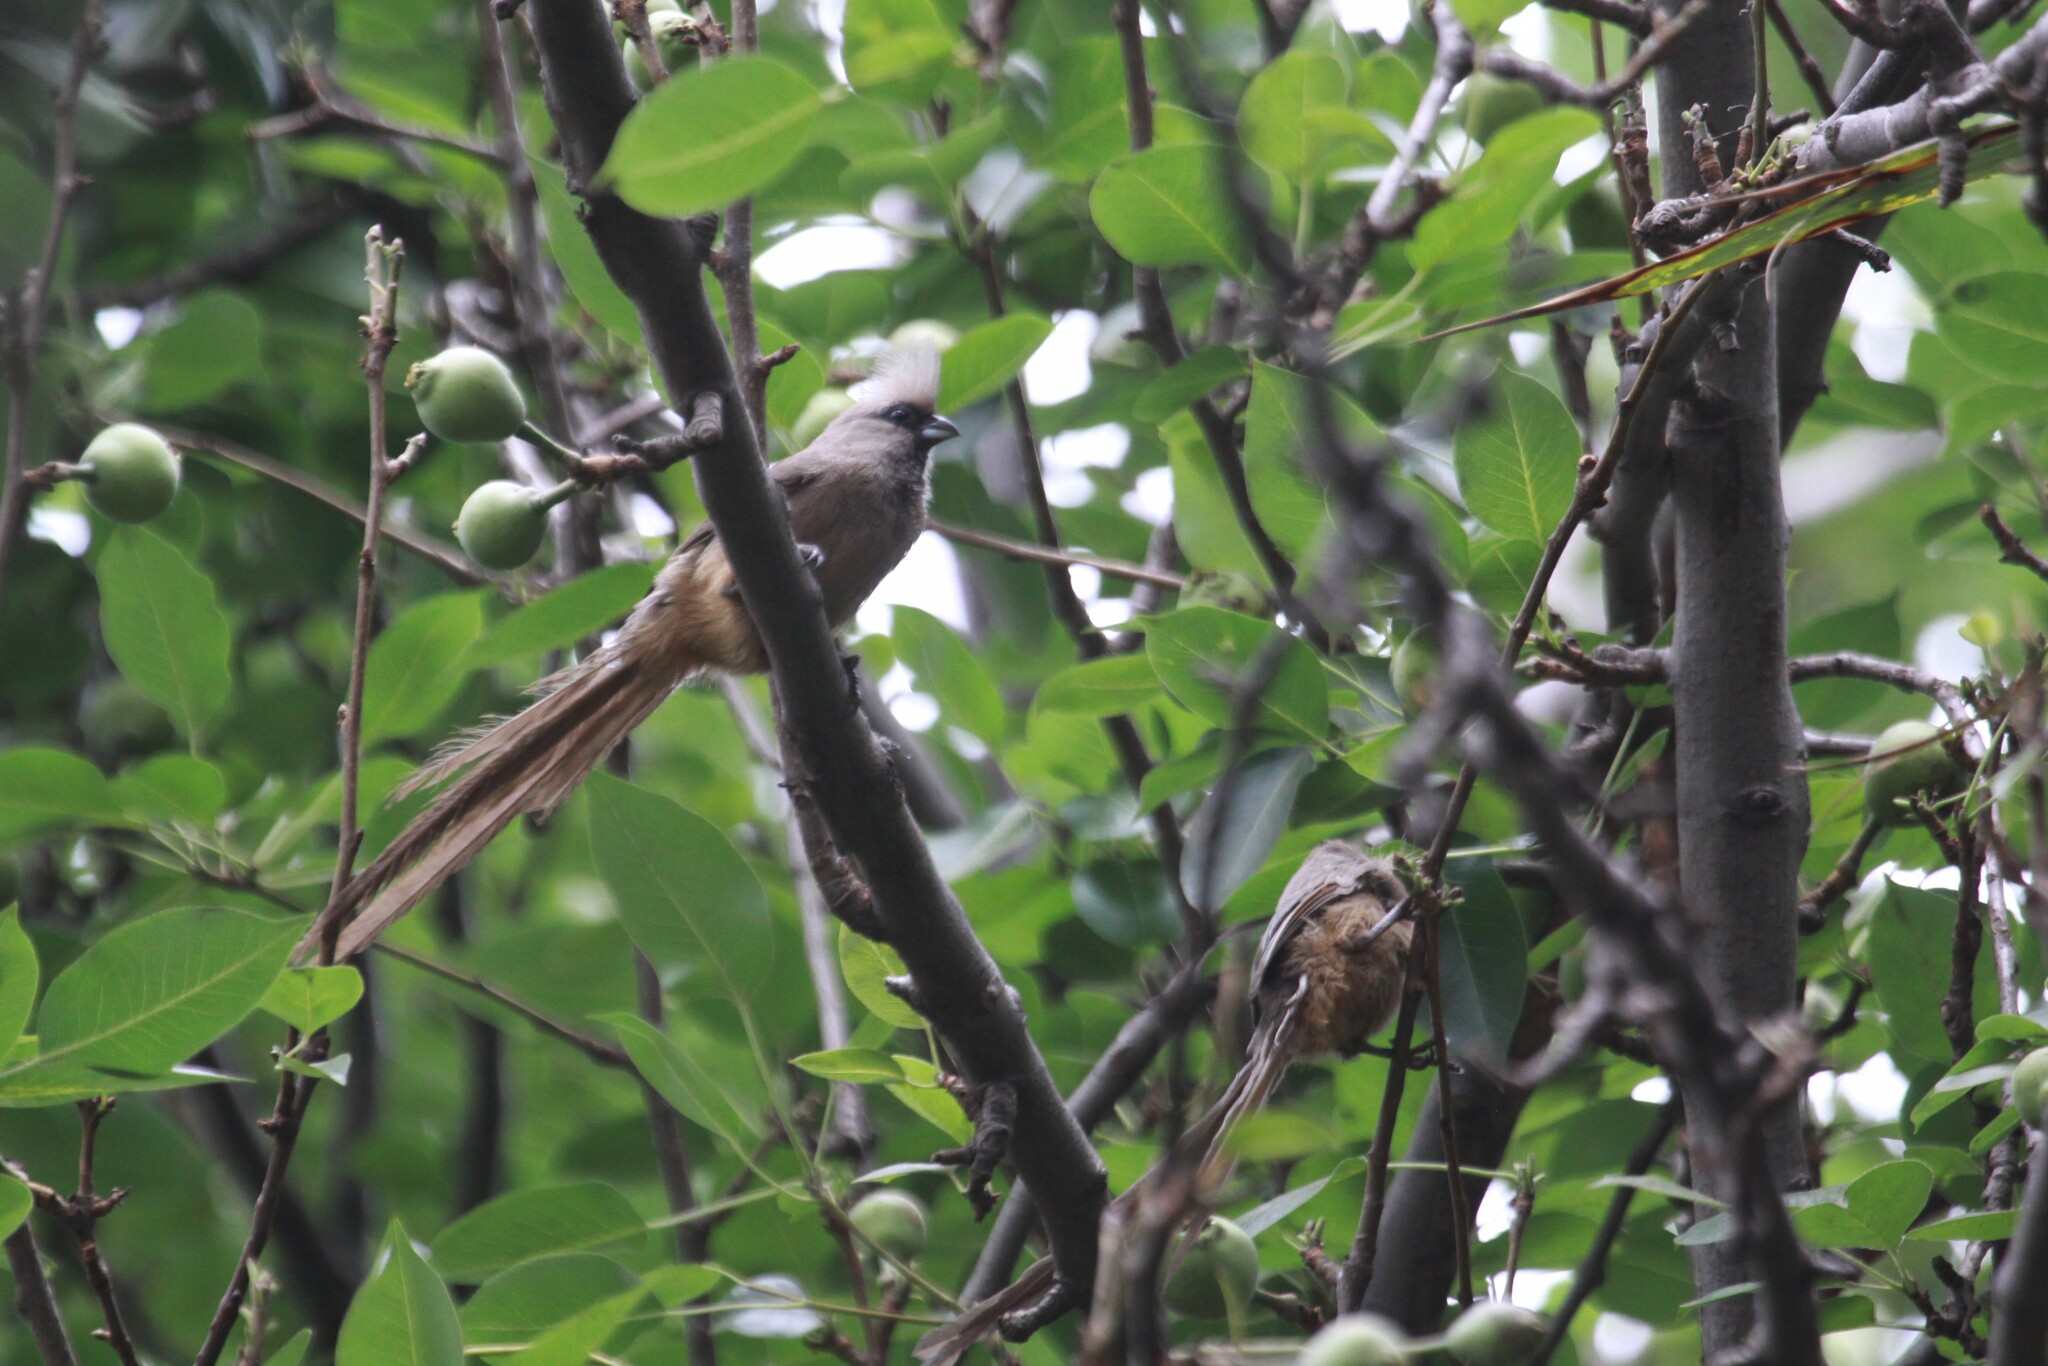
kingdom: Animalia
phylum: Chordata
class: Aves
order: Coliiformes
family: Coliidae
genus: Colius
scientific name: Colius striatus
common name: Speckled mousebird
